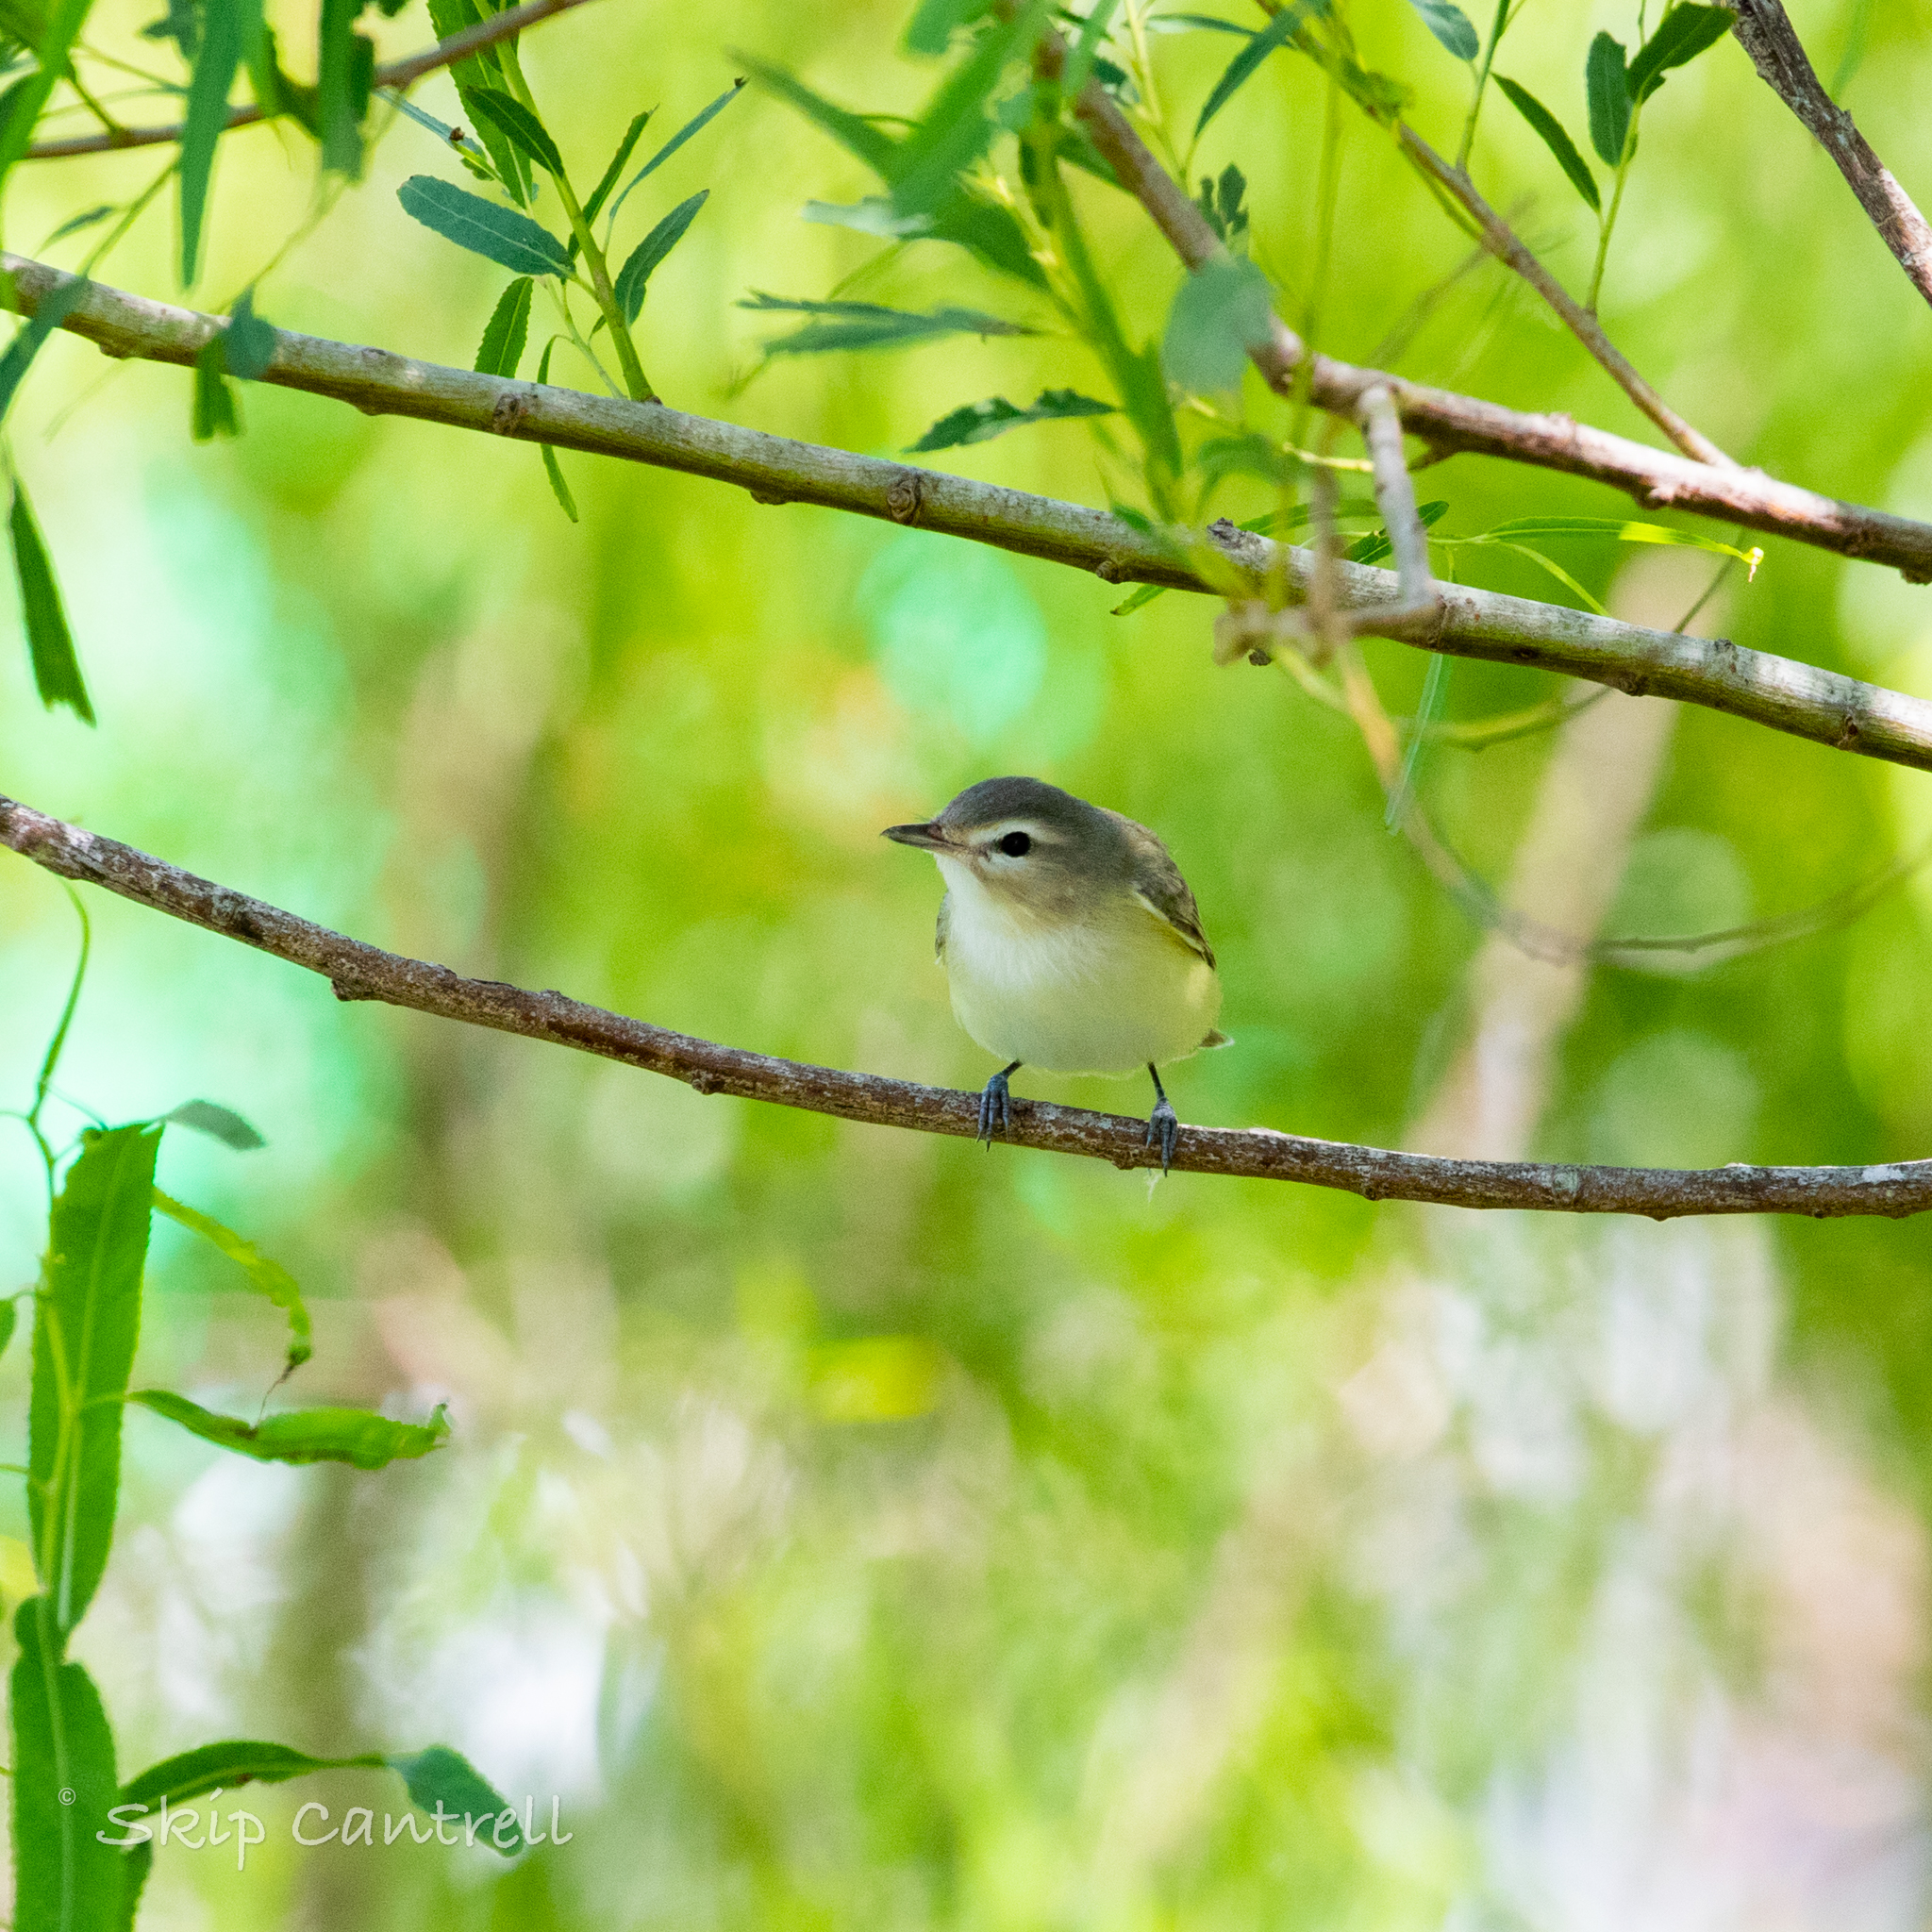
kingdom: Animalia
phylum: Chordata
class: Aves
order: Passeriformes
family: Vireonidae
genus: Vireo
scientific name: Vireo gilvus
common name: Warbling vireo
